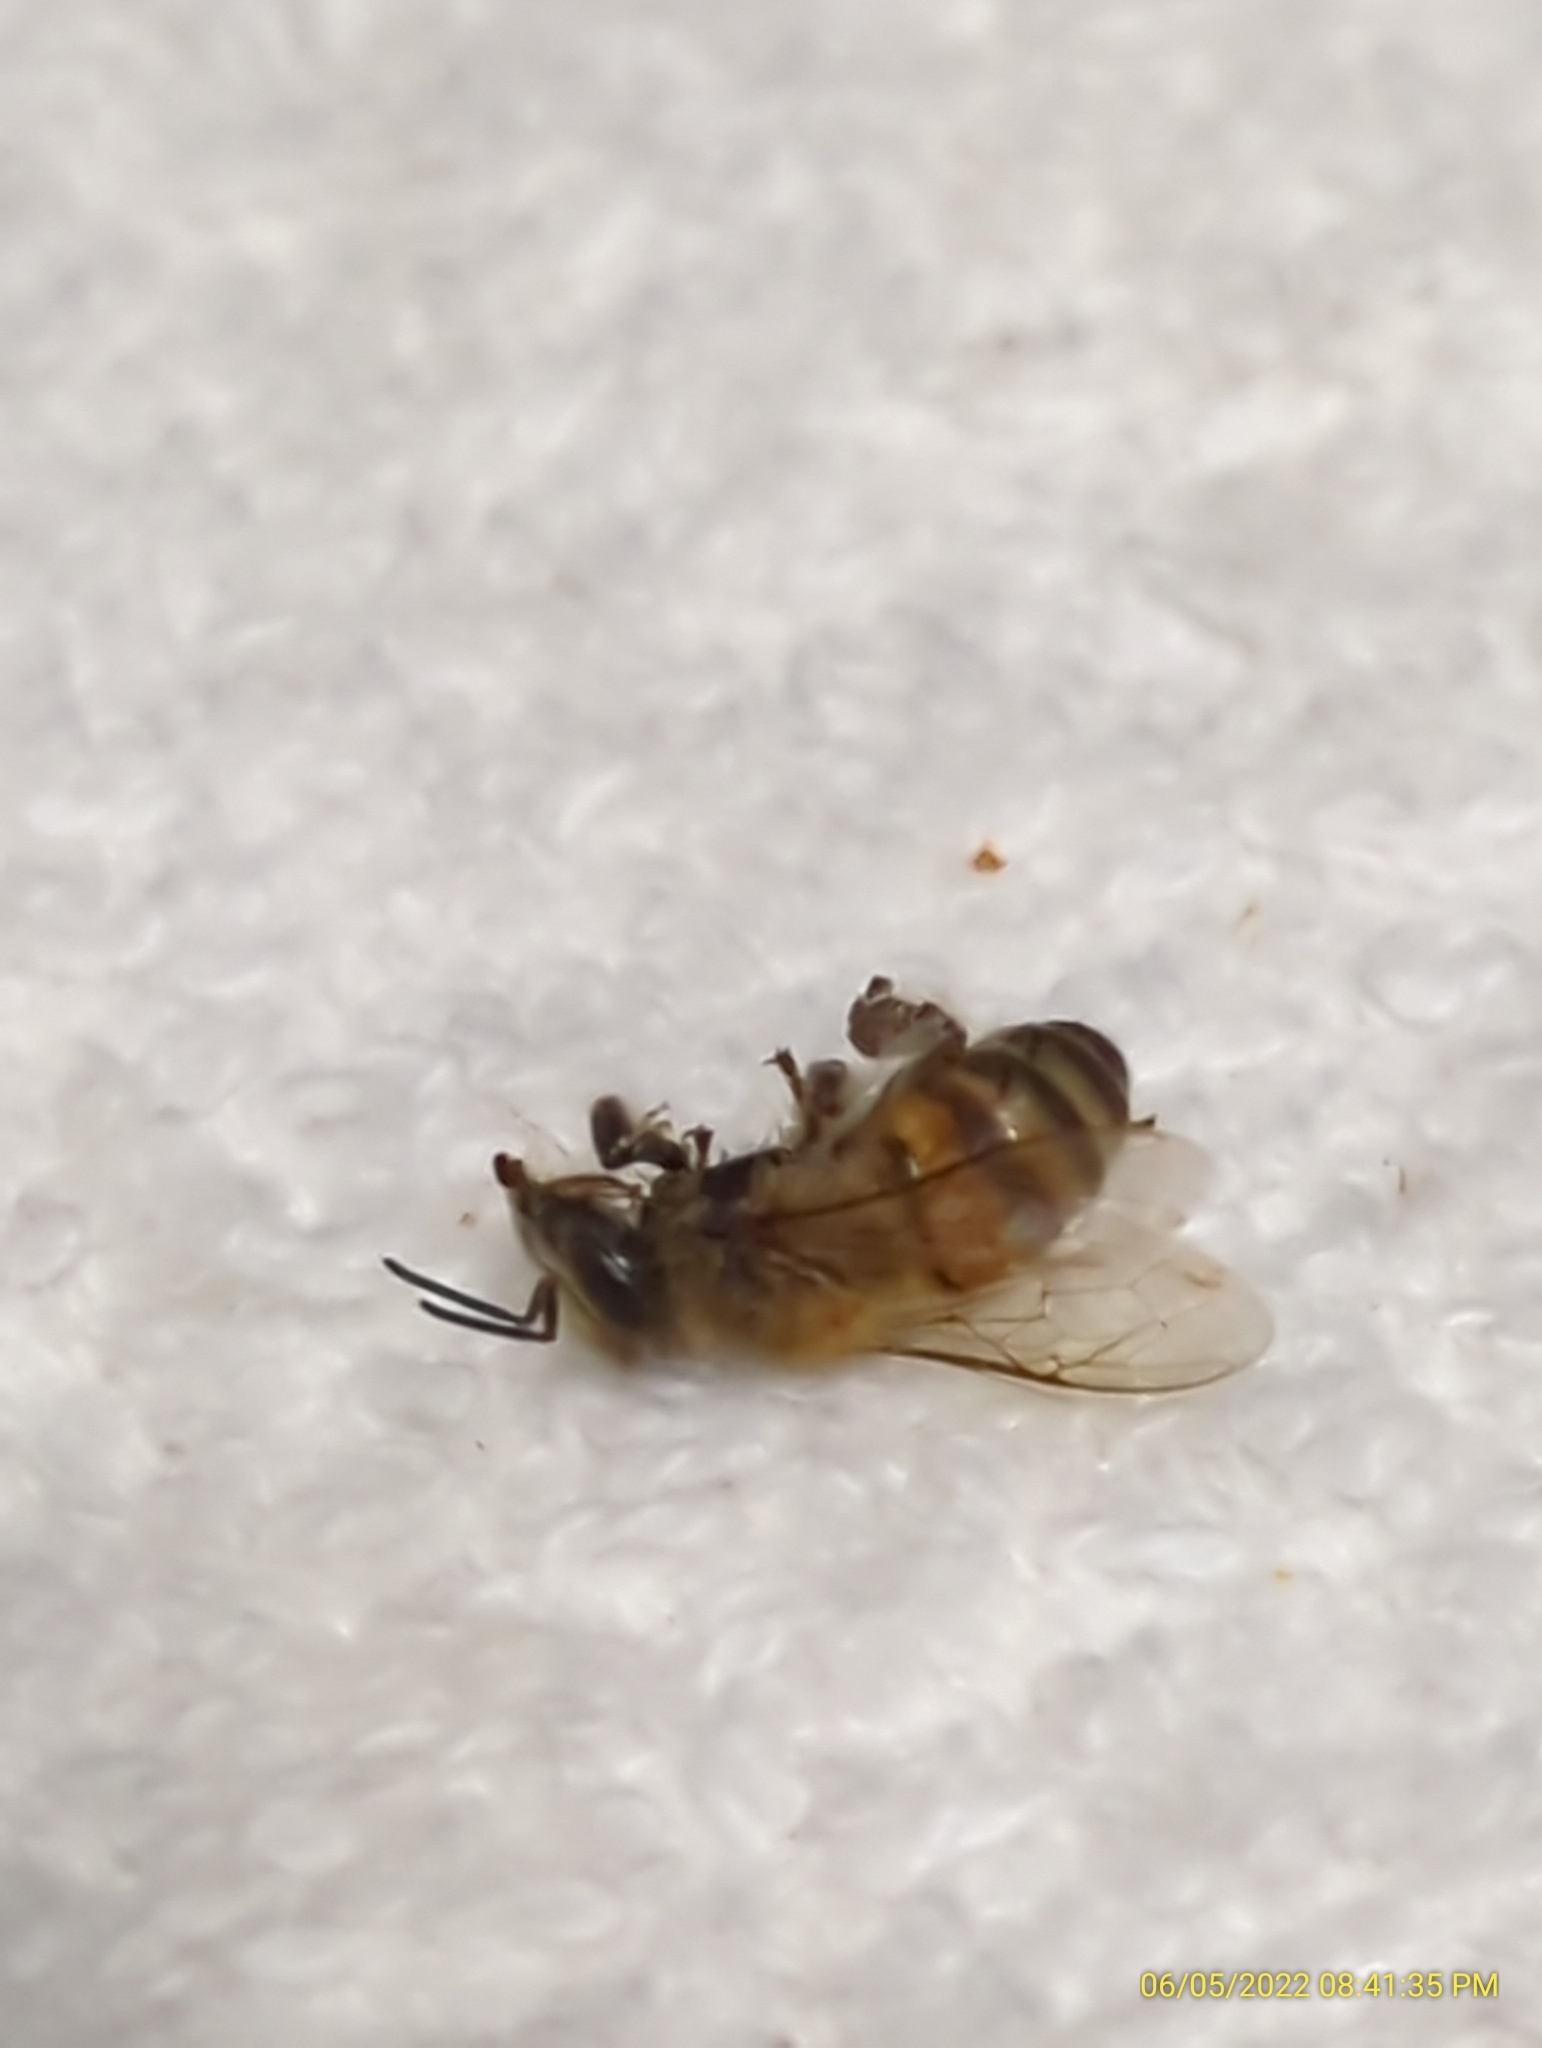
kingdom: Animalia
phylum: Arthropoda
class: Insecta
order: Hymenoptera
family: Apidae
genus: Apis
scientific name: Apis mellifera
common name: Honey bee
